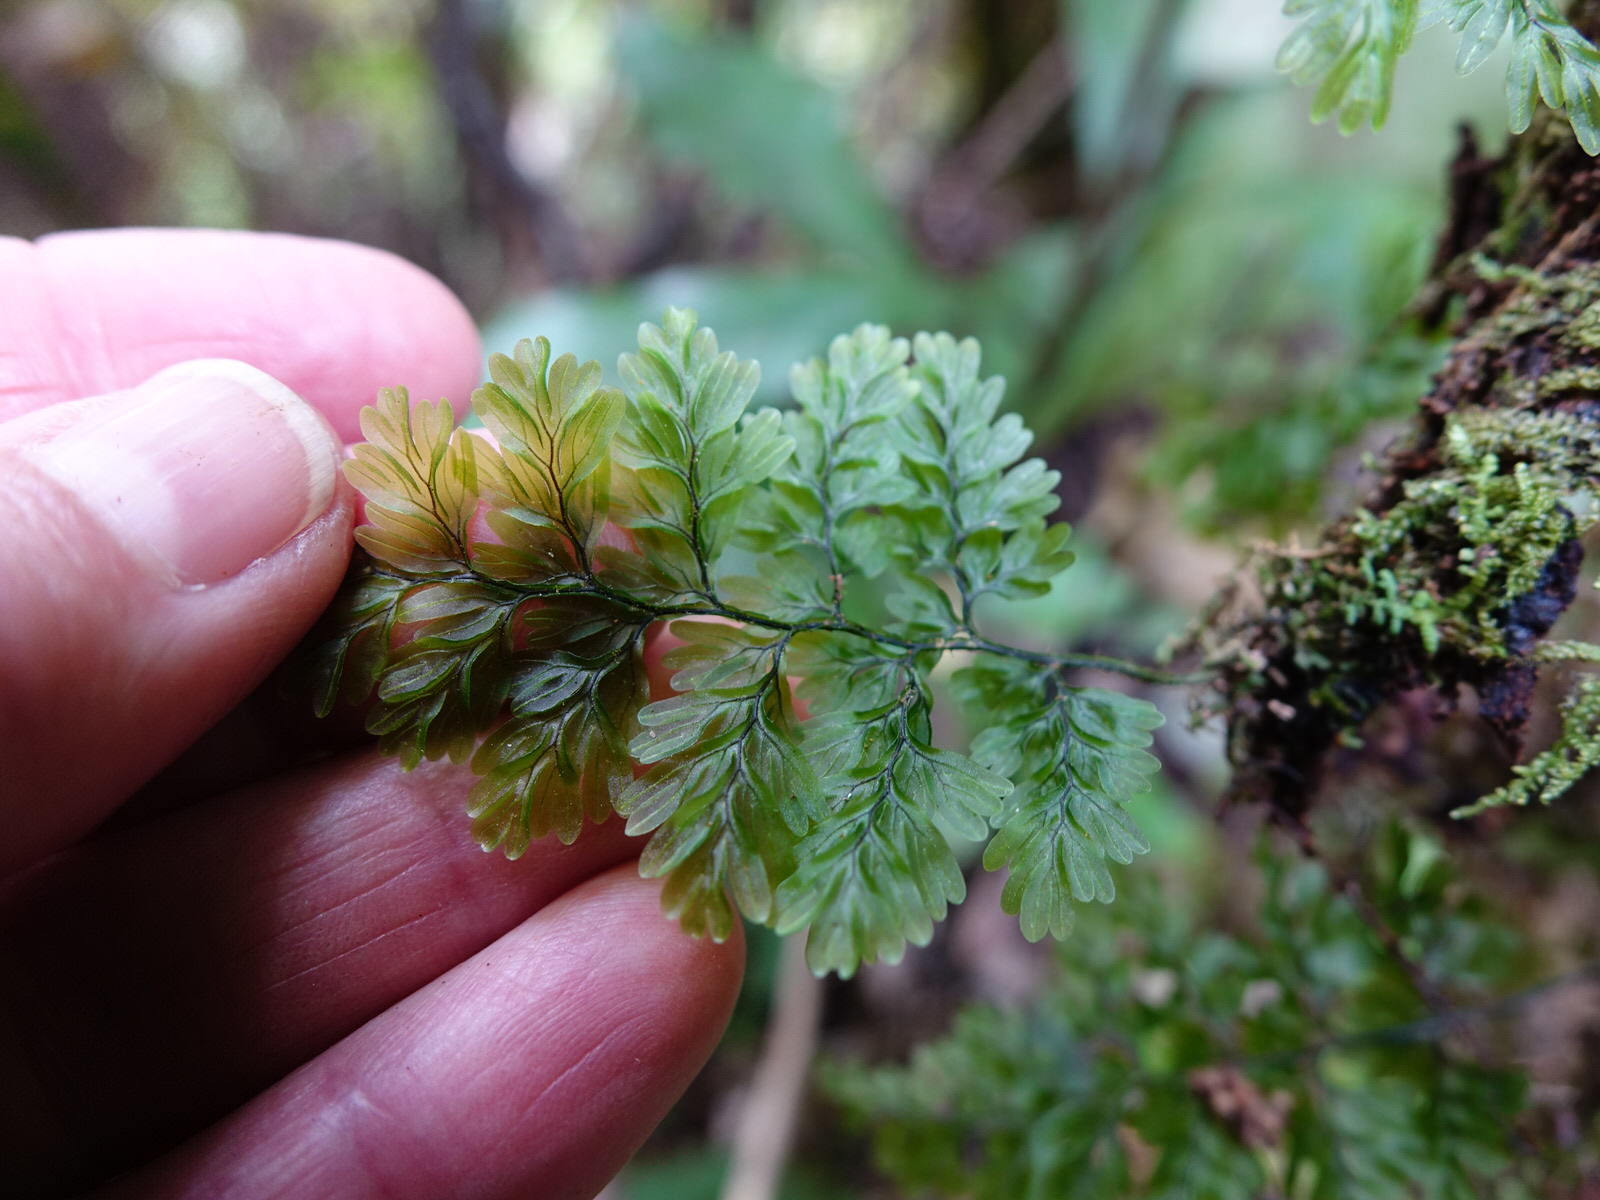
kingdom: Plantae
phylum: Tracheophyta
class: Polypodiopsida
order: Hymenophyllales
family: Hymenophyllaceae
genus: Hymenophyllum
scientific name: Hymenophyllum sanguinolentum
